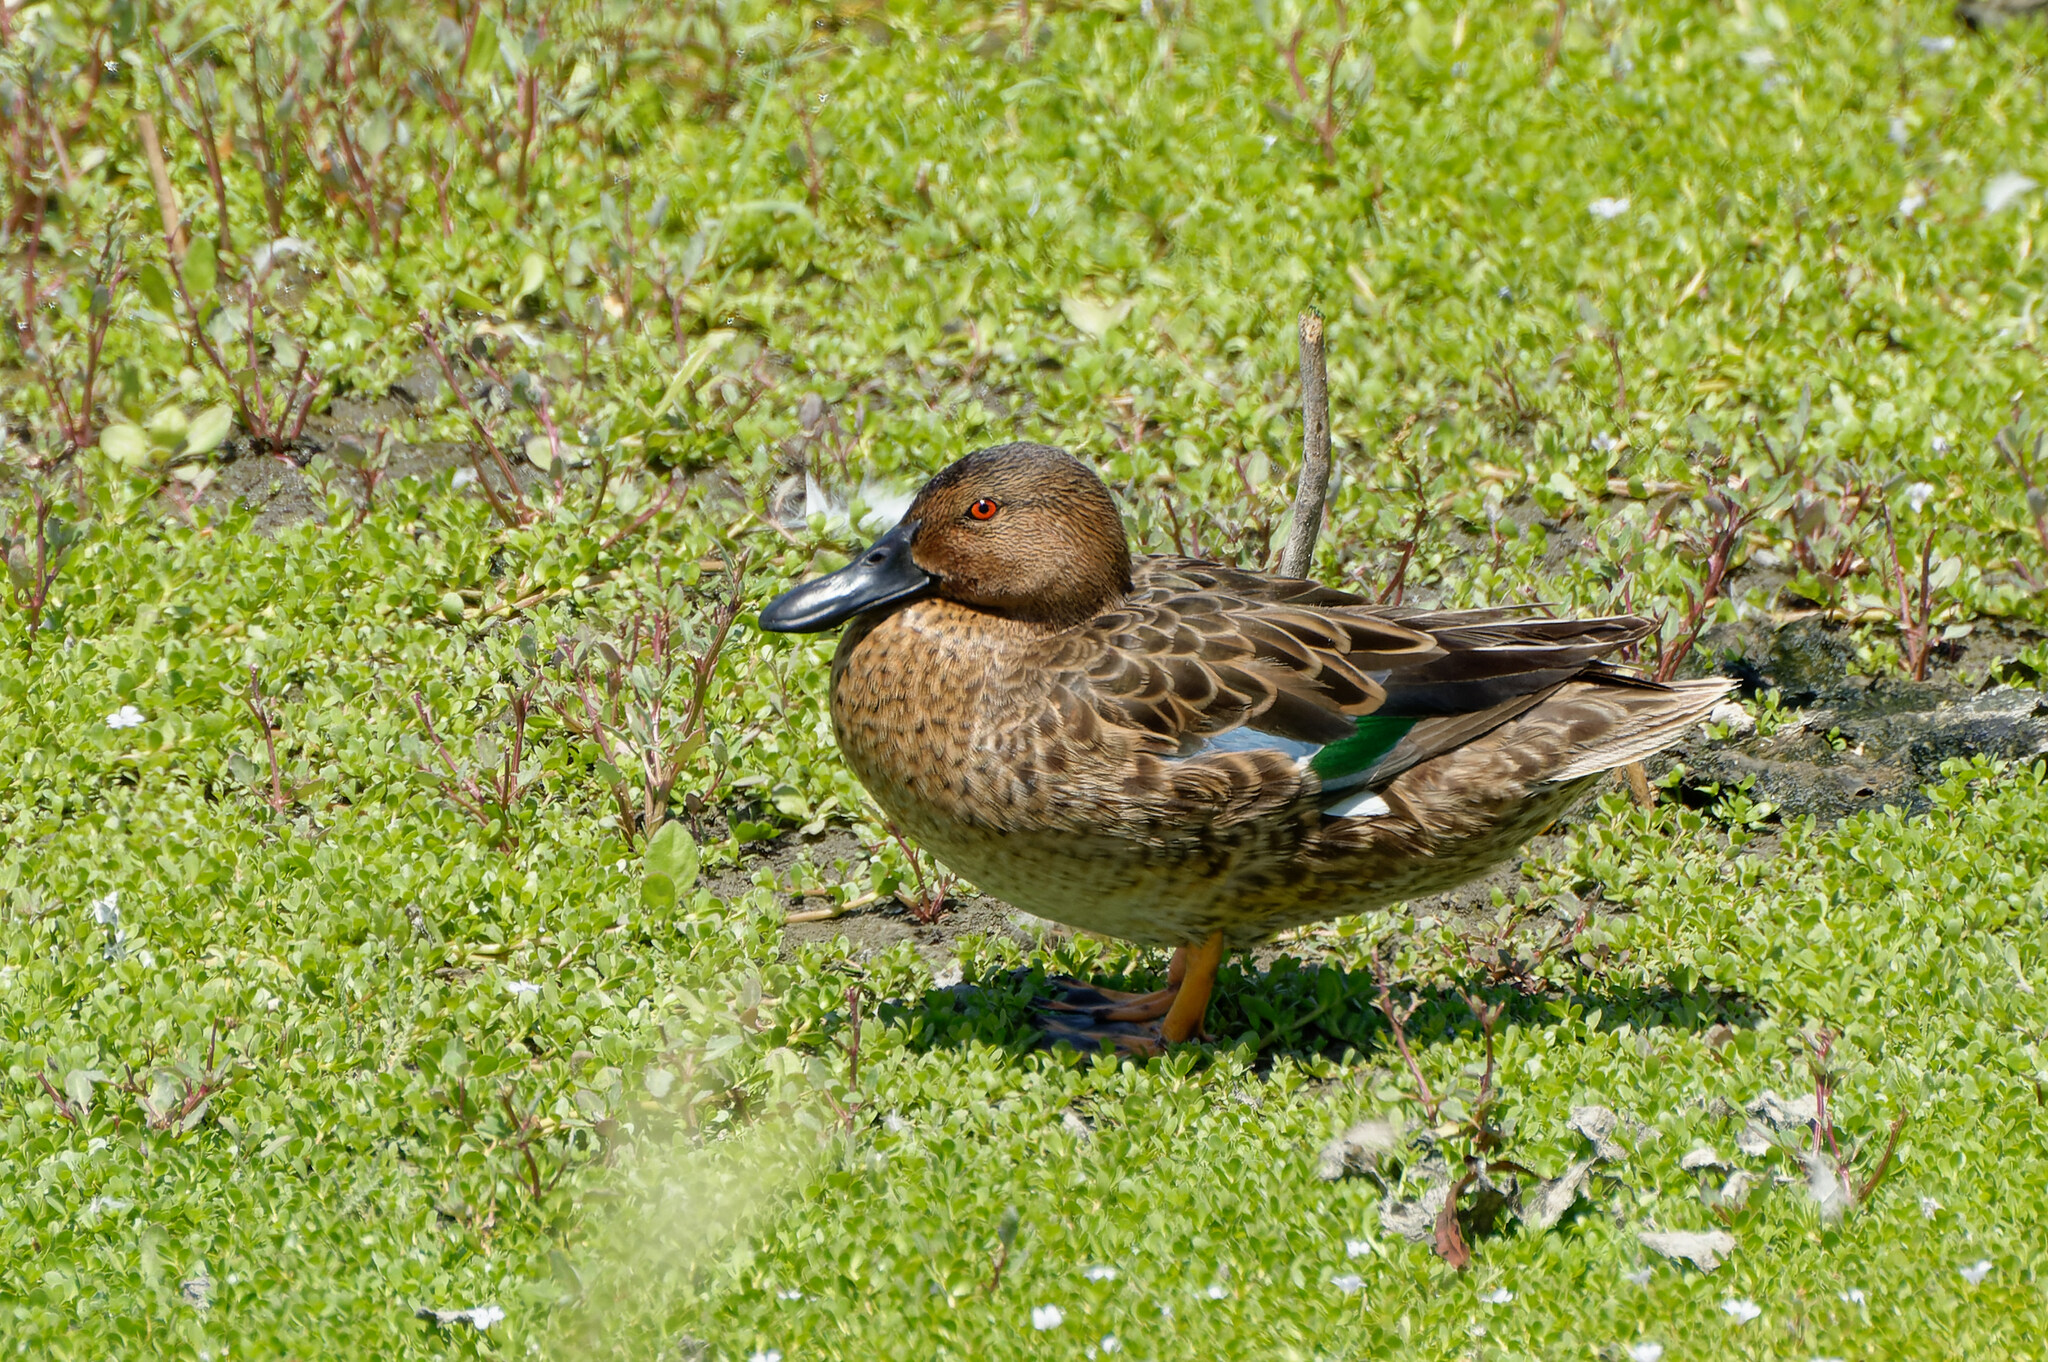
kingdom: Animalia
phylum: Chordata
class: Aves
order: Anseriformes
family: Anatidae
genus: Spatula
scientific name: Spatula cyanoptera
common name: Cinnamon teal
